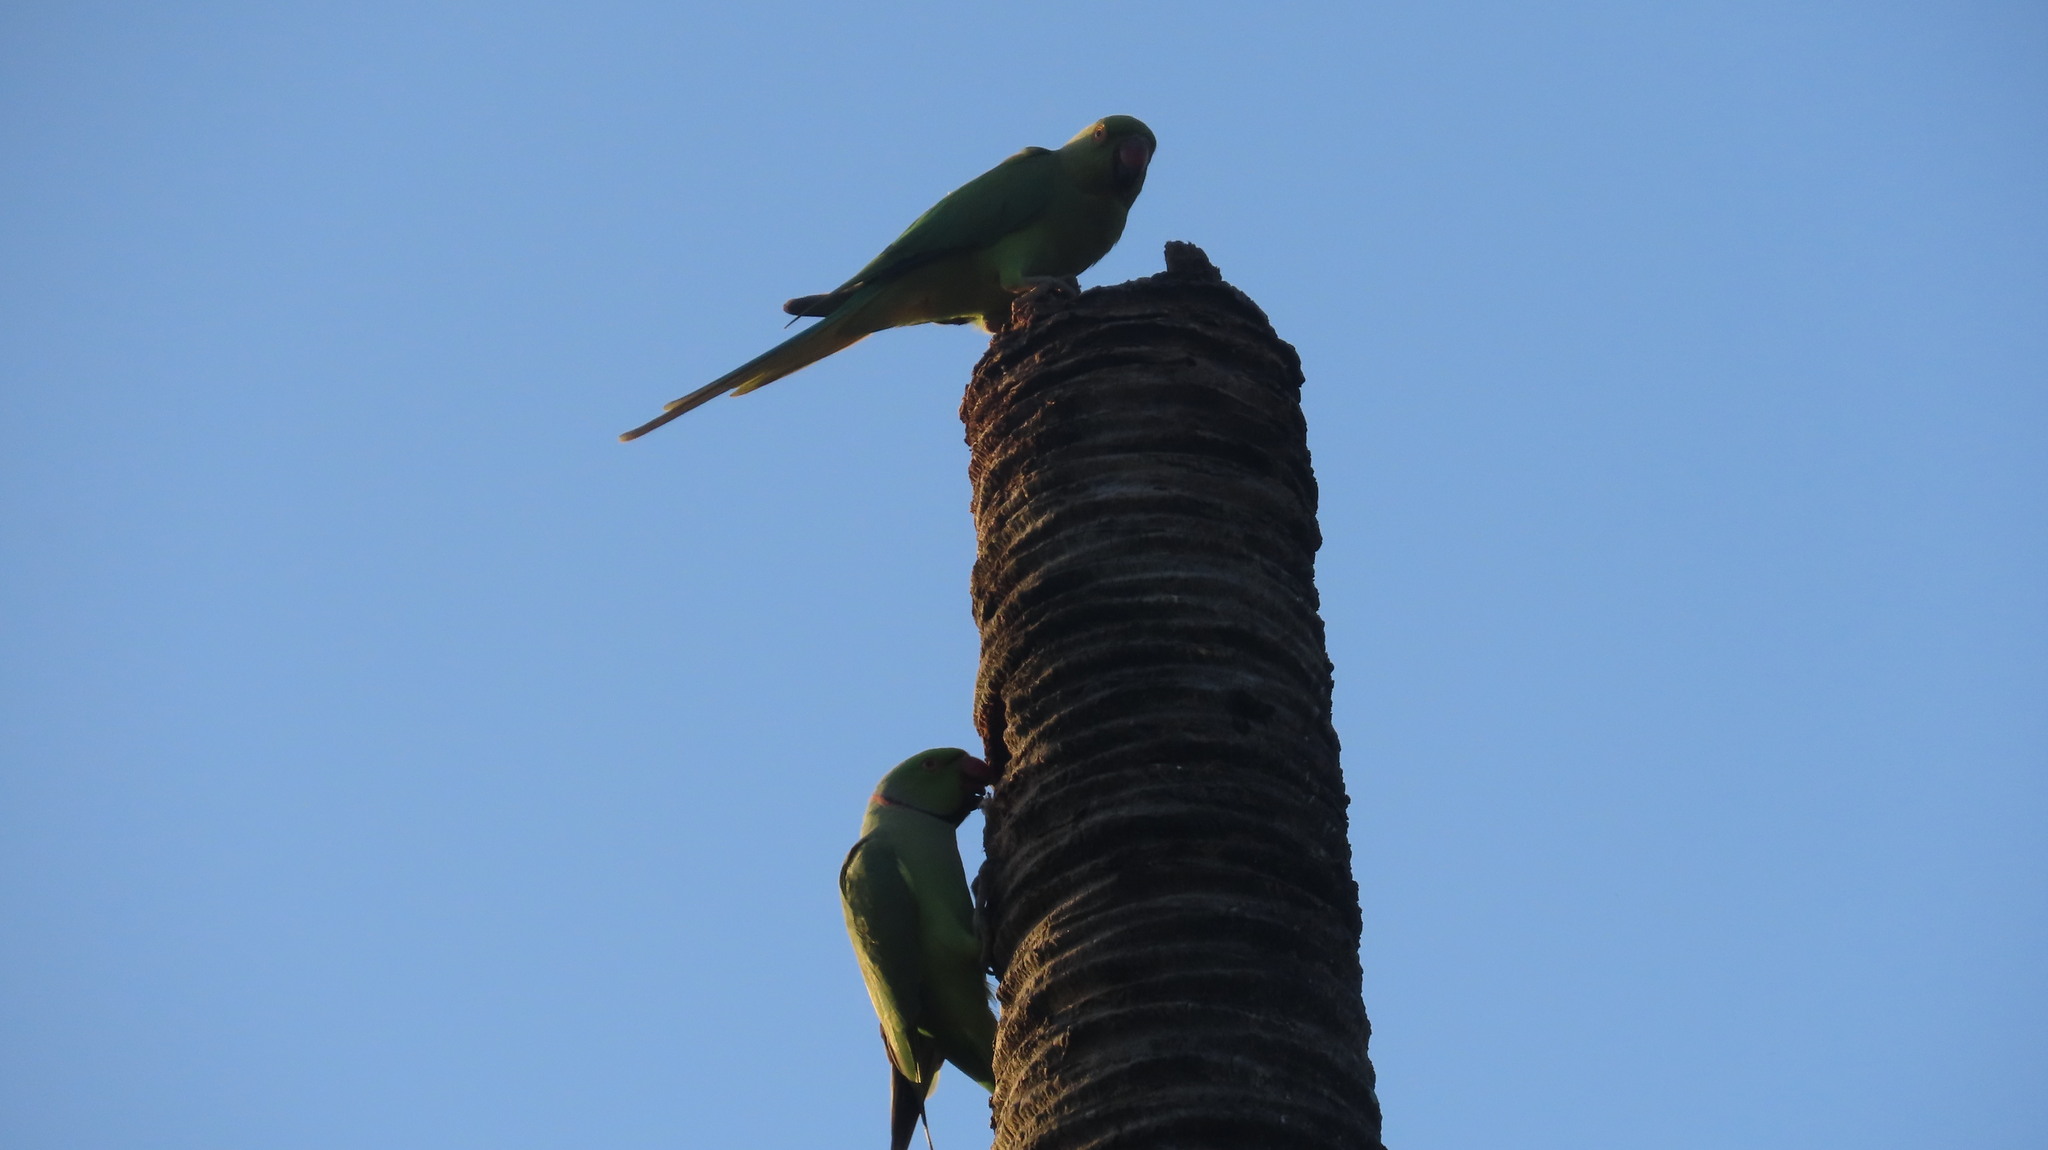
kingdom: Animalia
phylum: Chordata
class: Aves
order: Psittaciformes
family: Psittacidae
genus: Psittacula
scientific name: Psittacula krameri
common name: Rose-ringed parakeet
